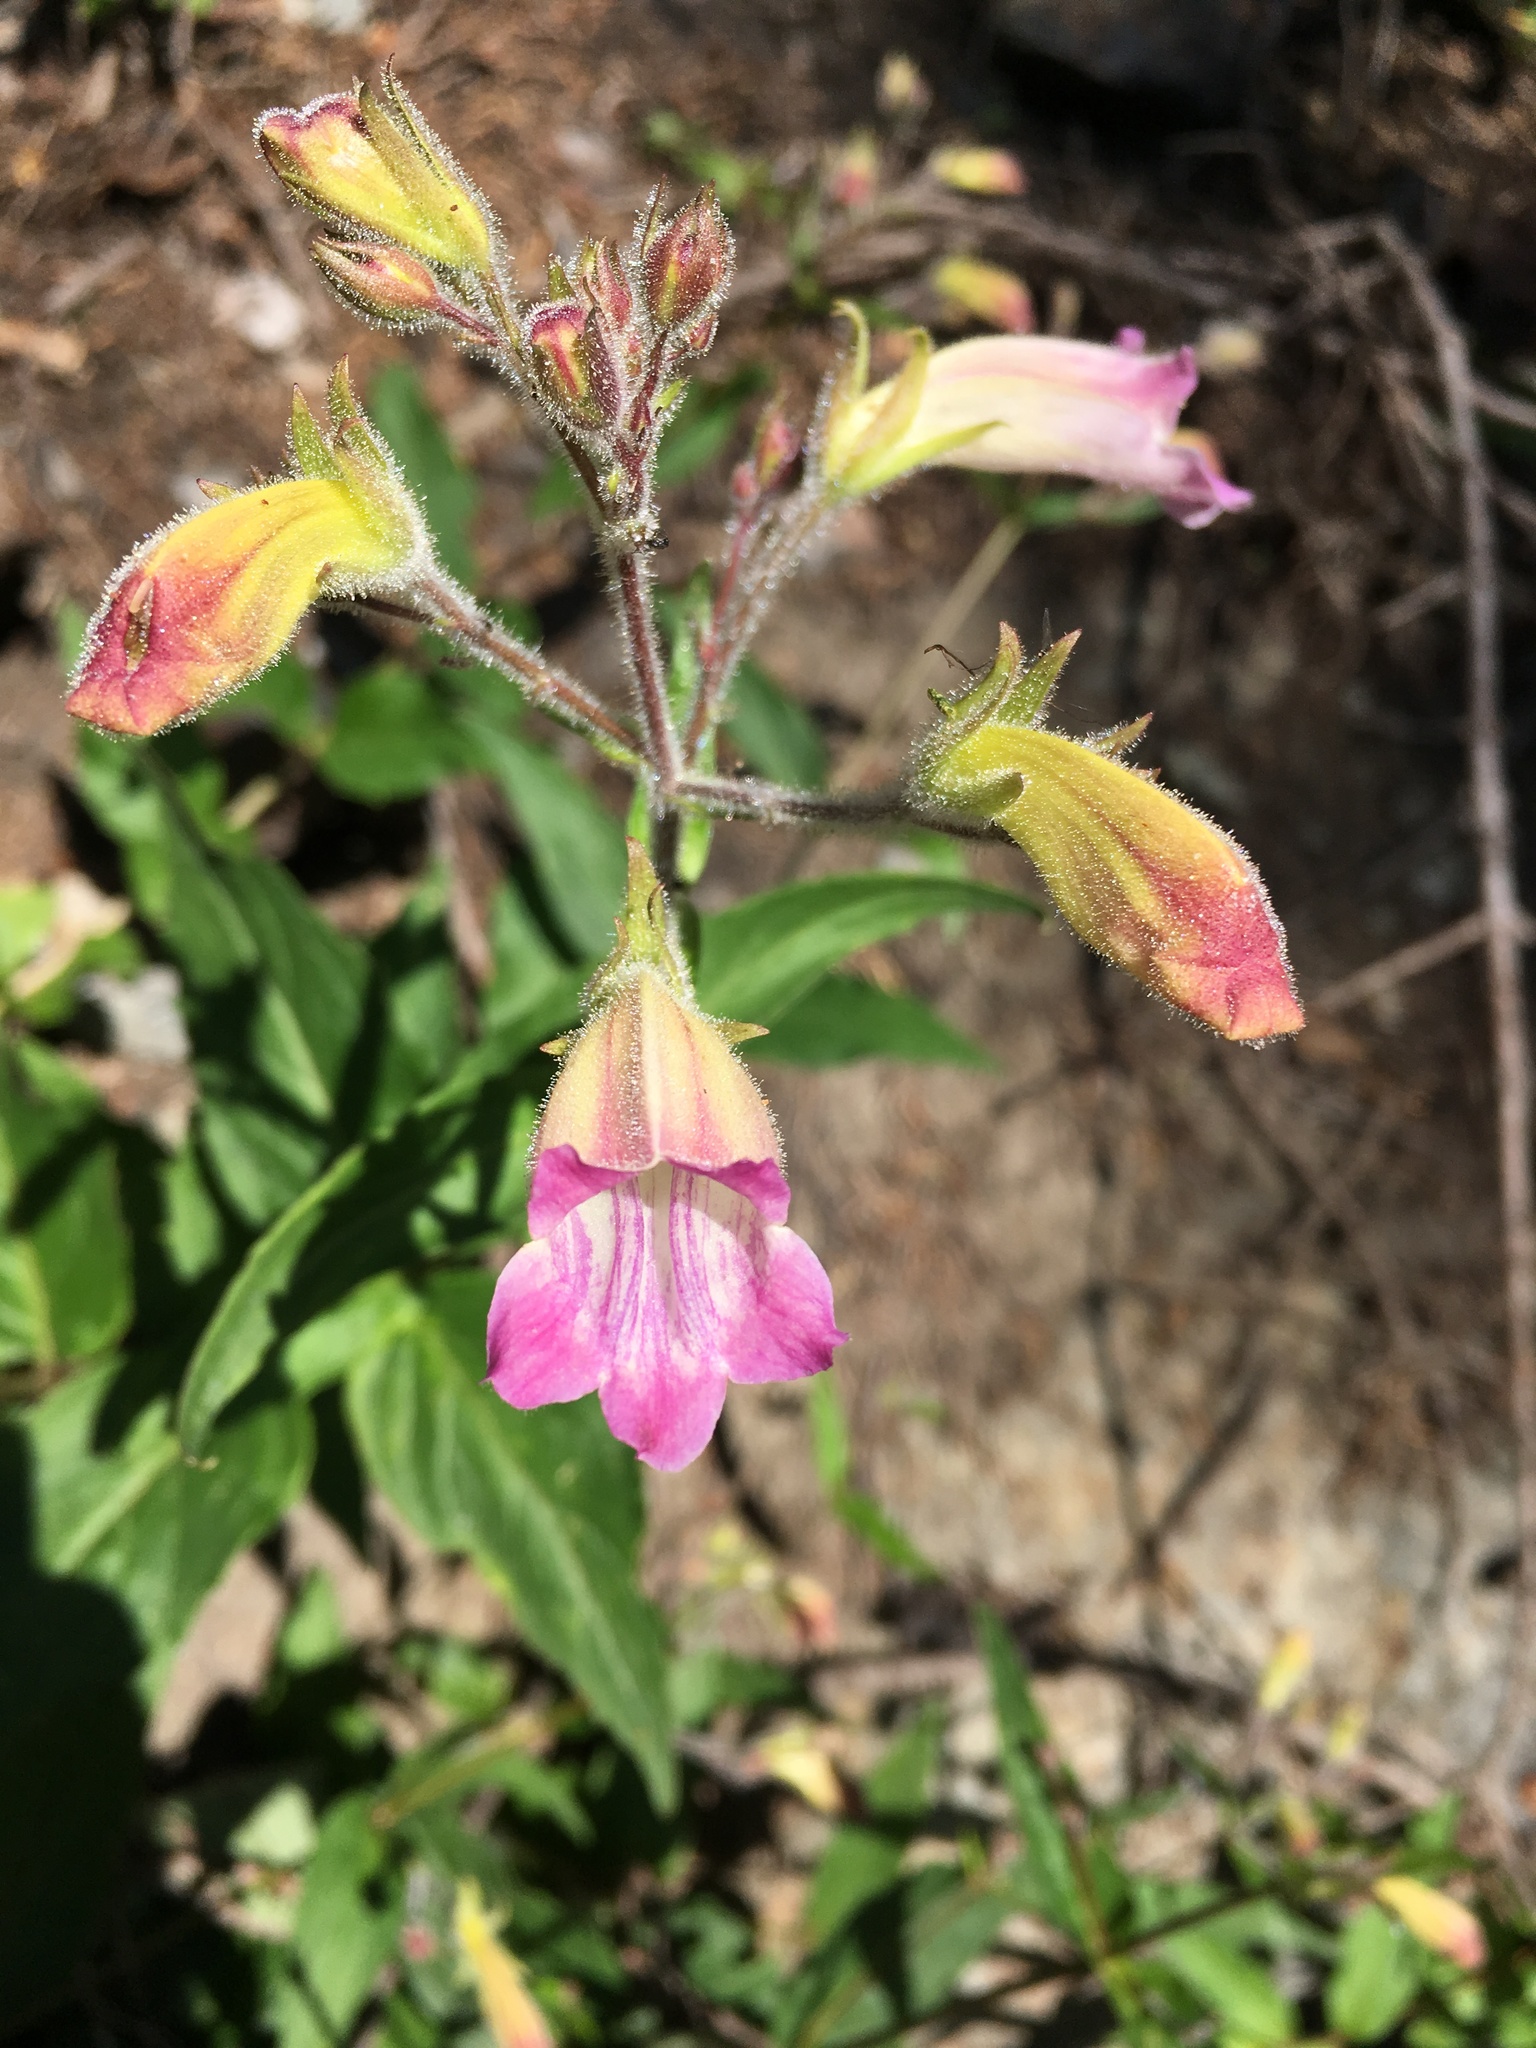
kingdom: Plantae
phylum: Tracheophyta
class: Magnoliopsida
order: Lamiales
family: Plantaginaceae
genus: Nothochelone
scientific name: Nothochelone nemorosa
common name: Woodland beardtongue
